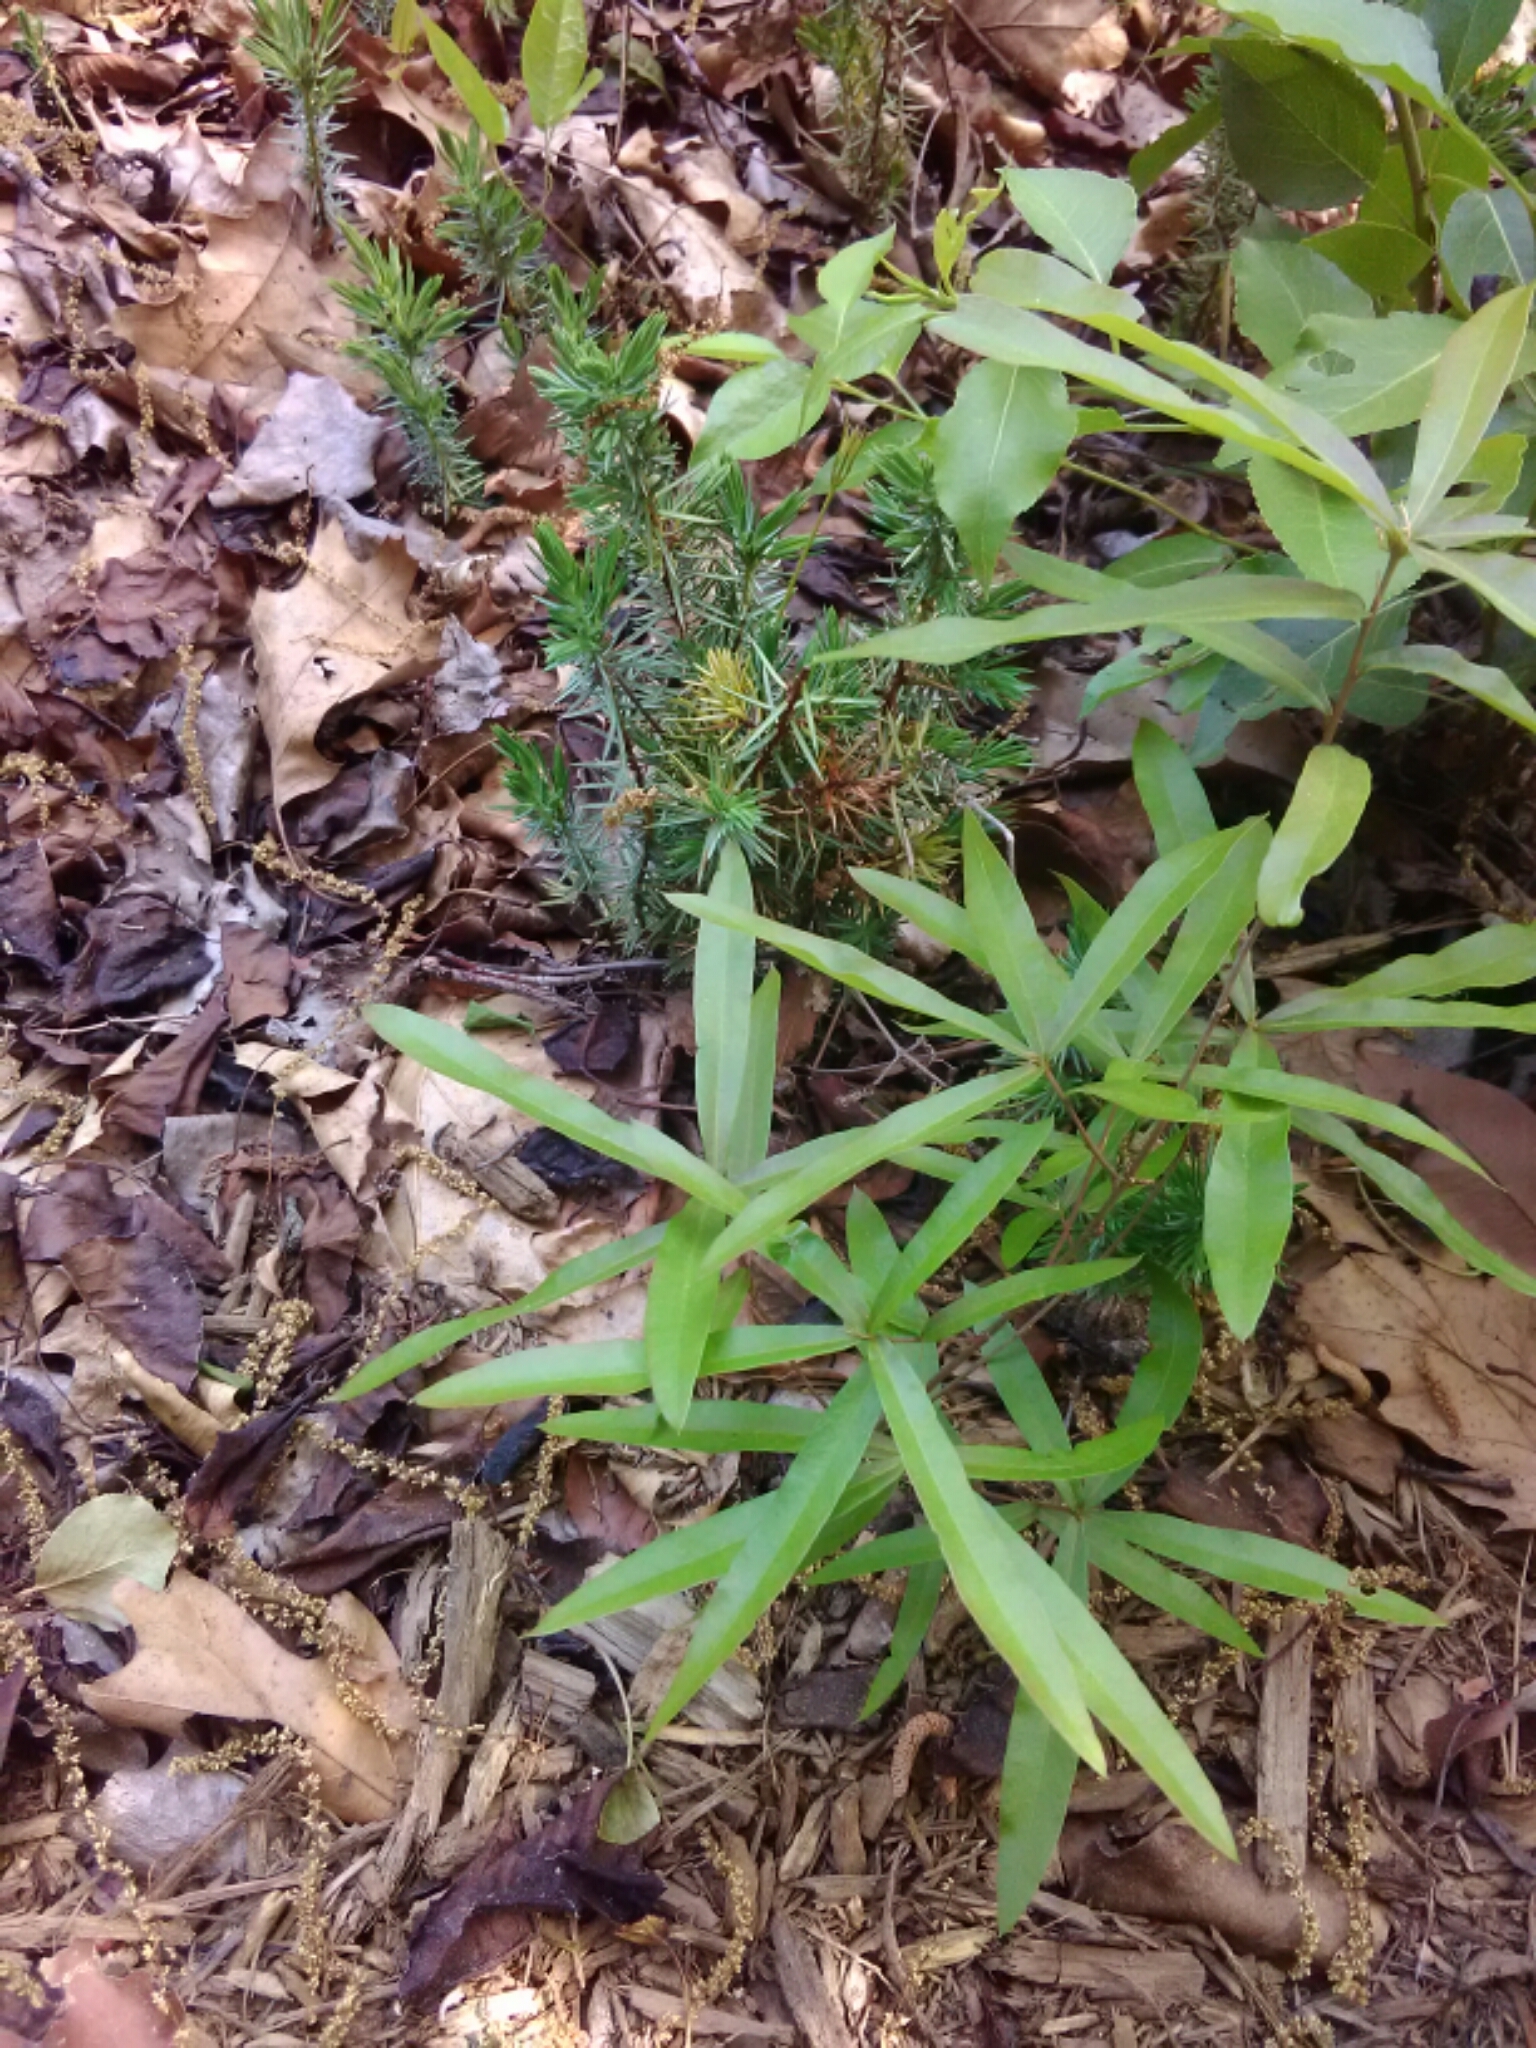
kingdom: Plantae
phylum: Tracheophyta
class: Magnoliopsida
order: Fagales
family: Fagaceae
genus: Quercus
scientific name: Quercus phellos
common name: Willow oak
